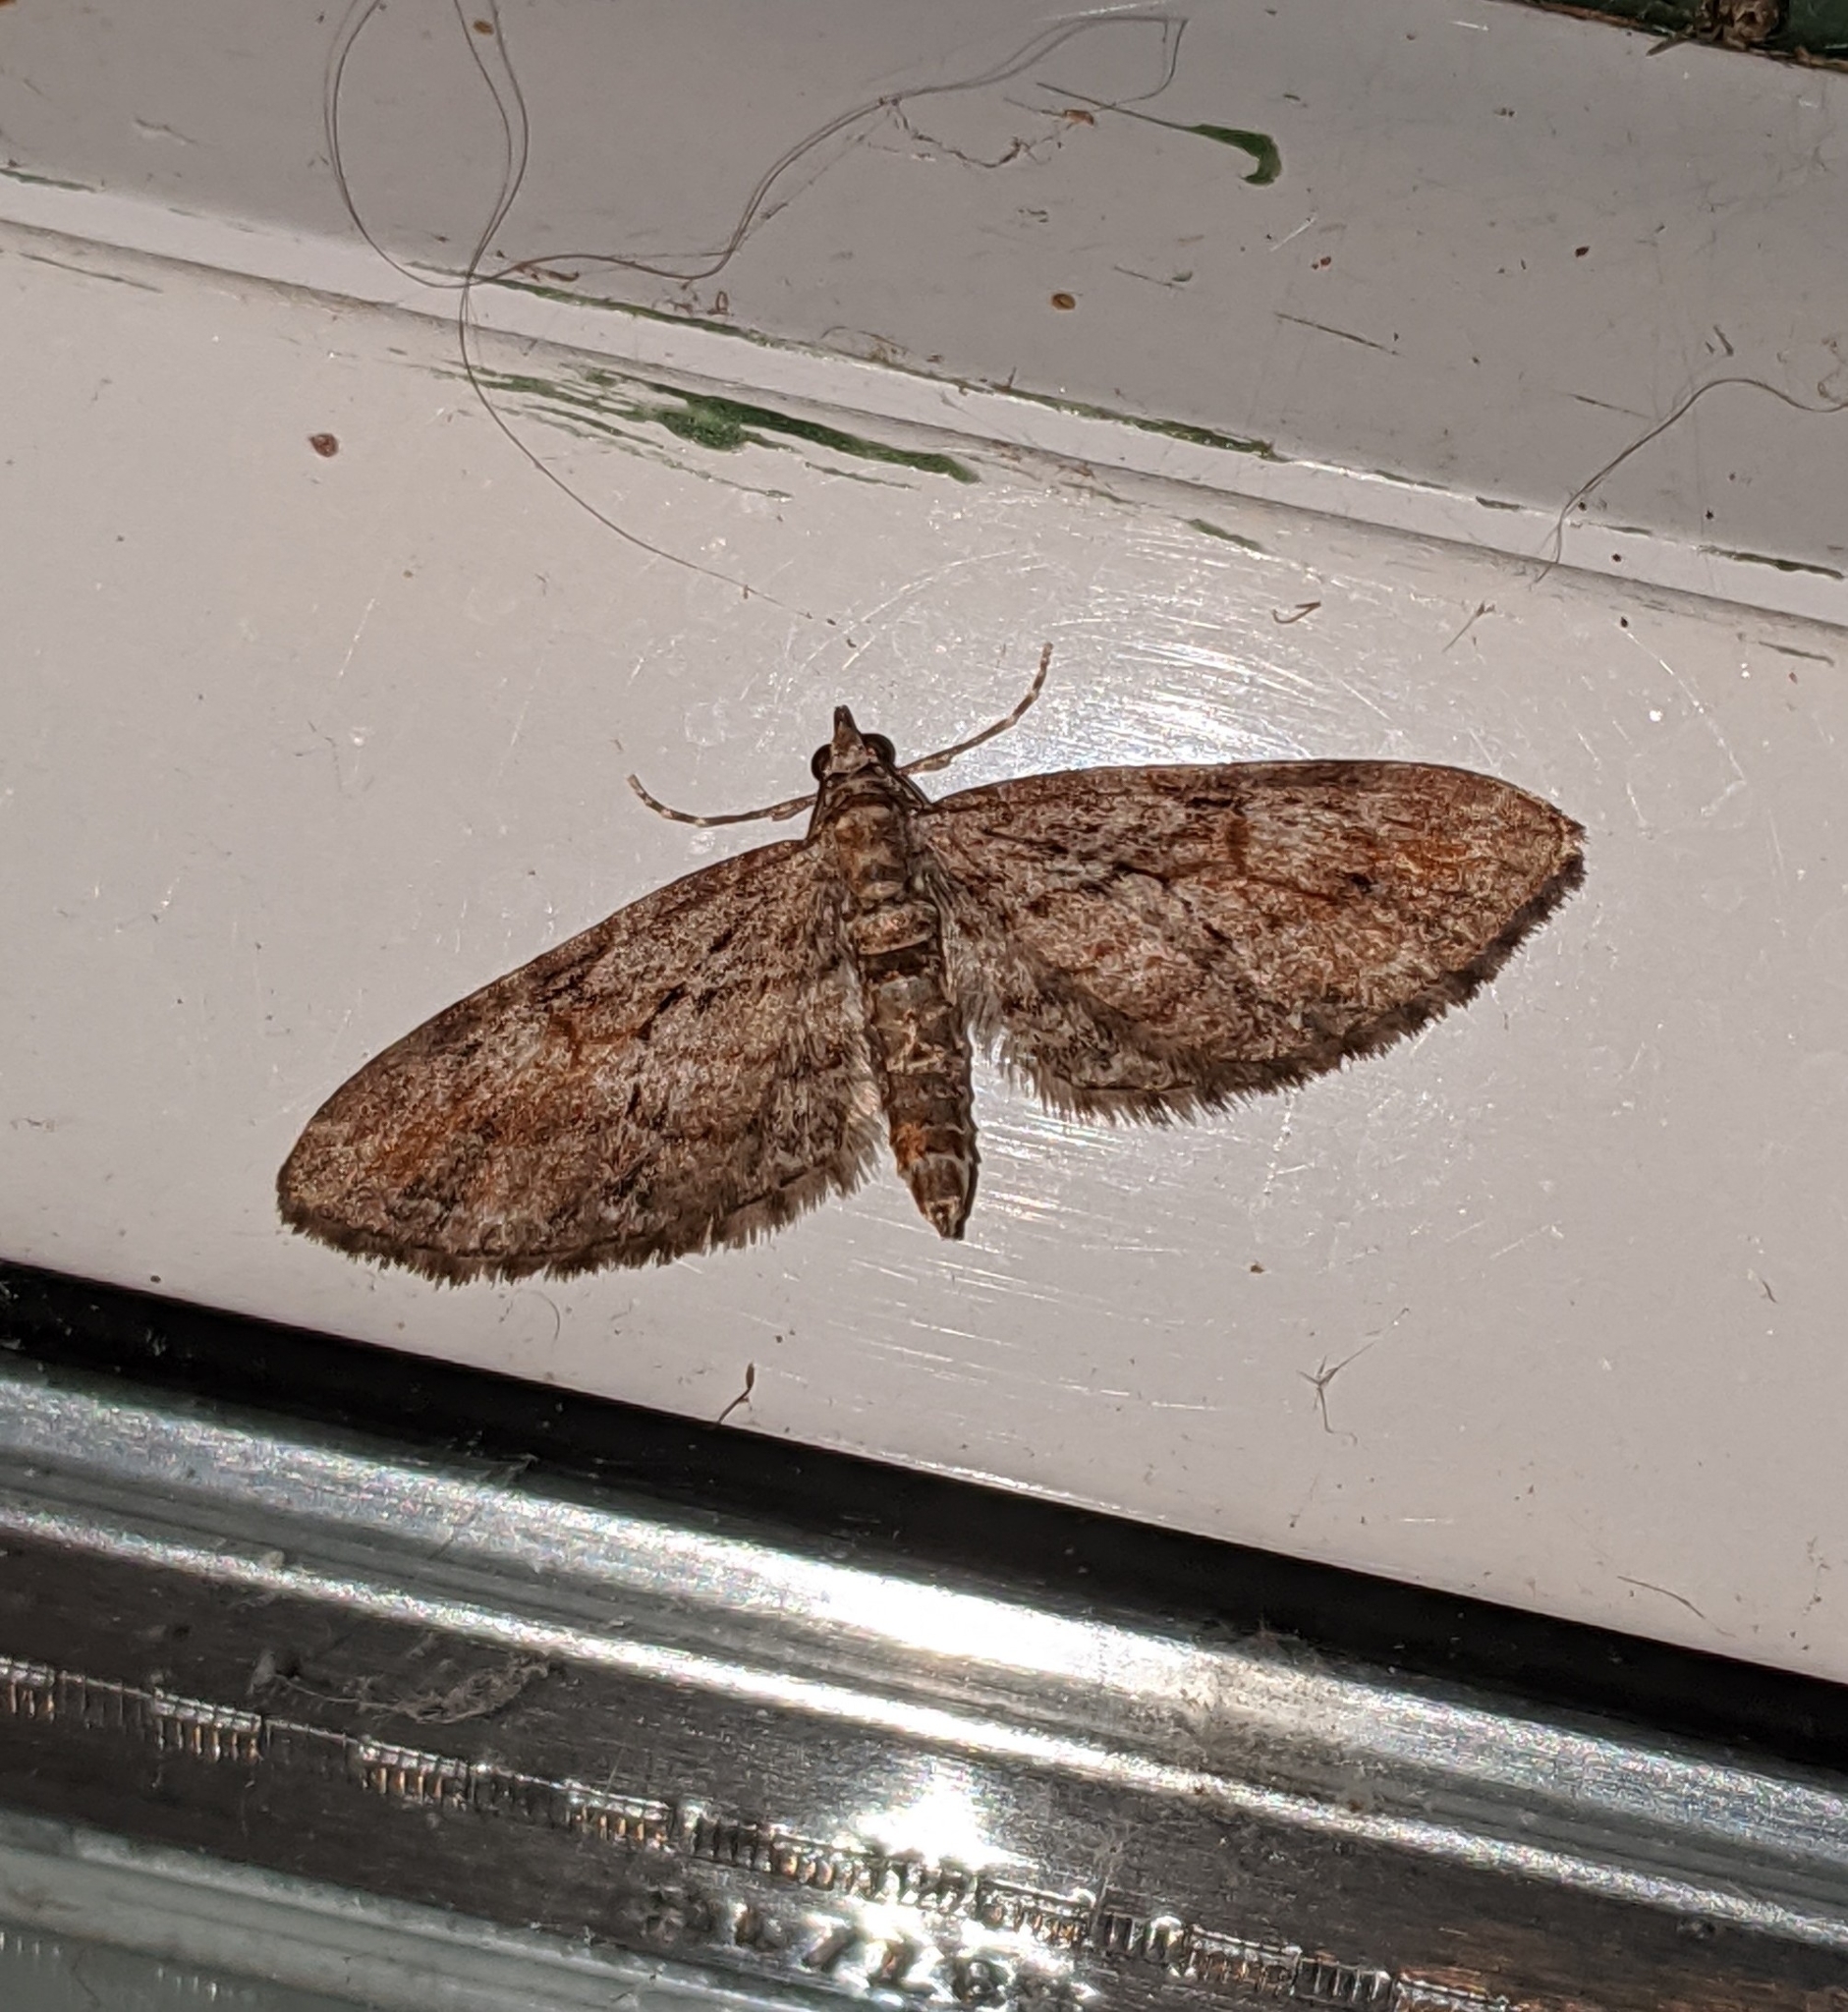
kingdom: Animalia
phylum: Arthropoda
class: Insecta
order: Lepidoptera
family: Geometridae
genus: Eupithecia
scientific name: Eupithecia graefii
